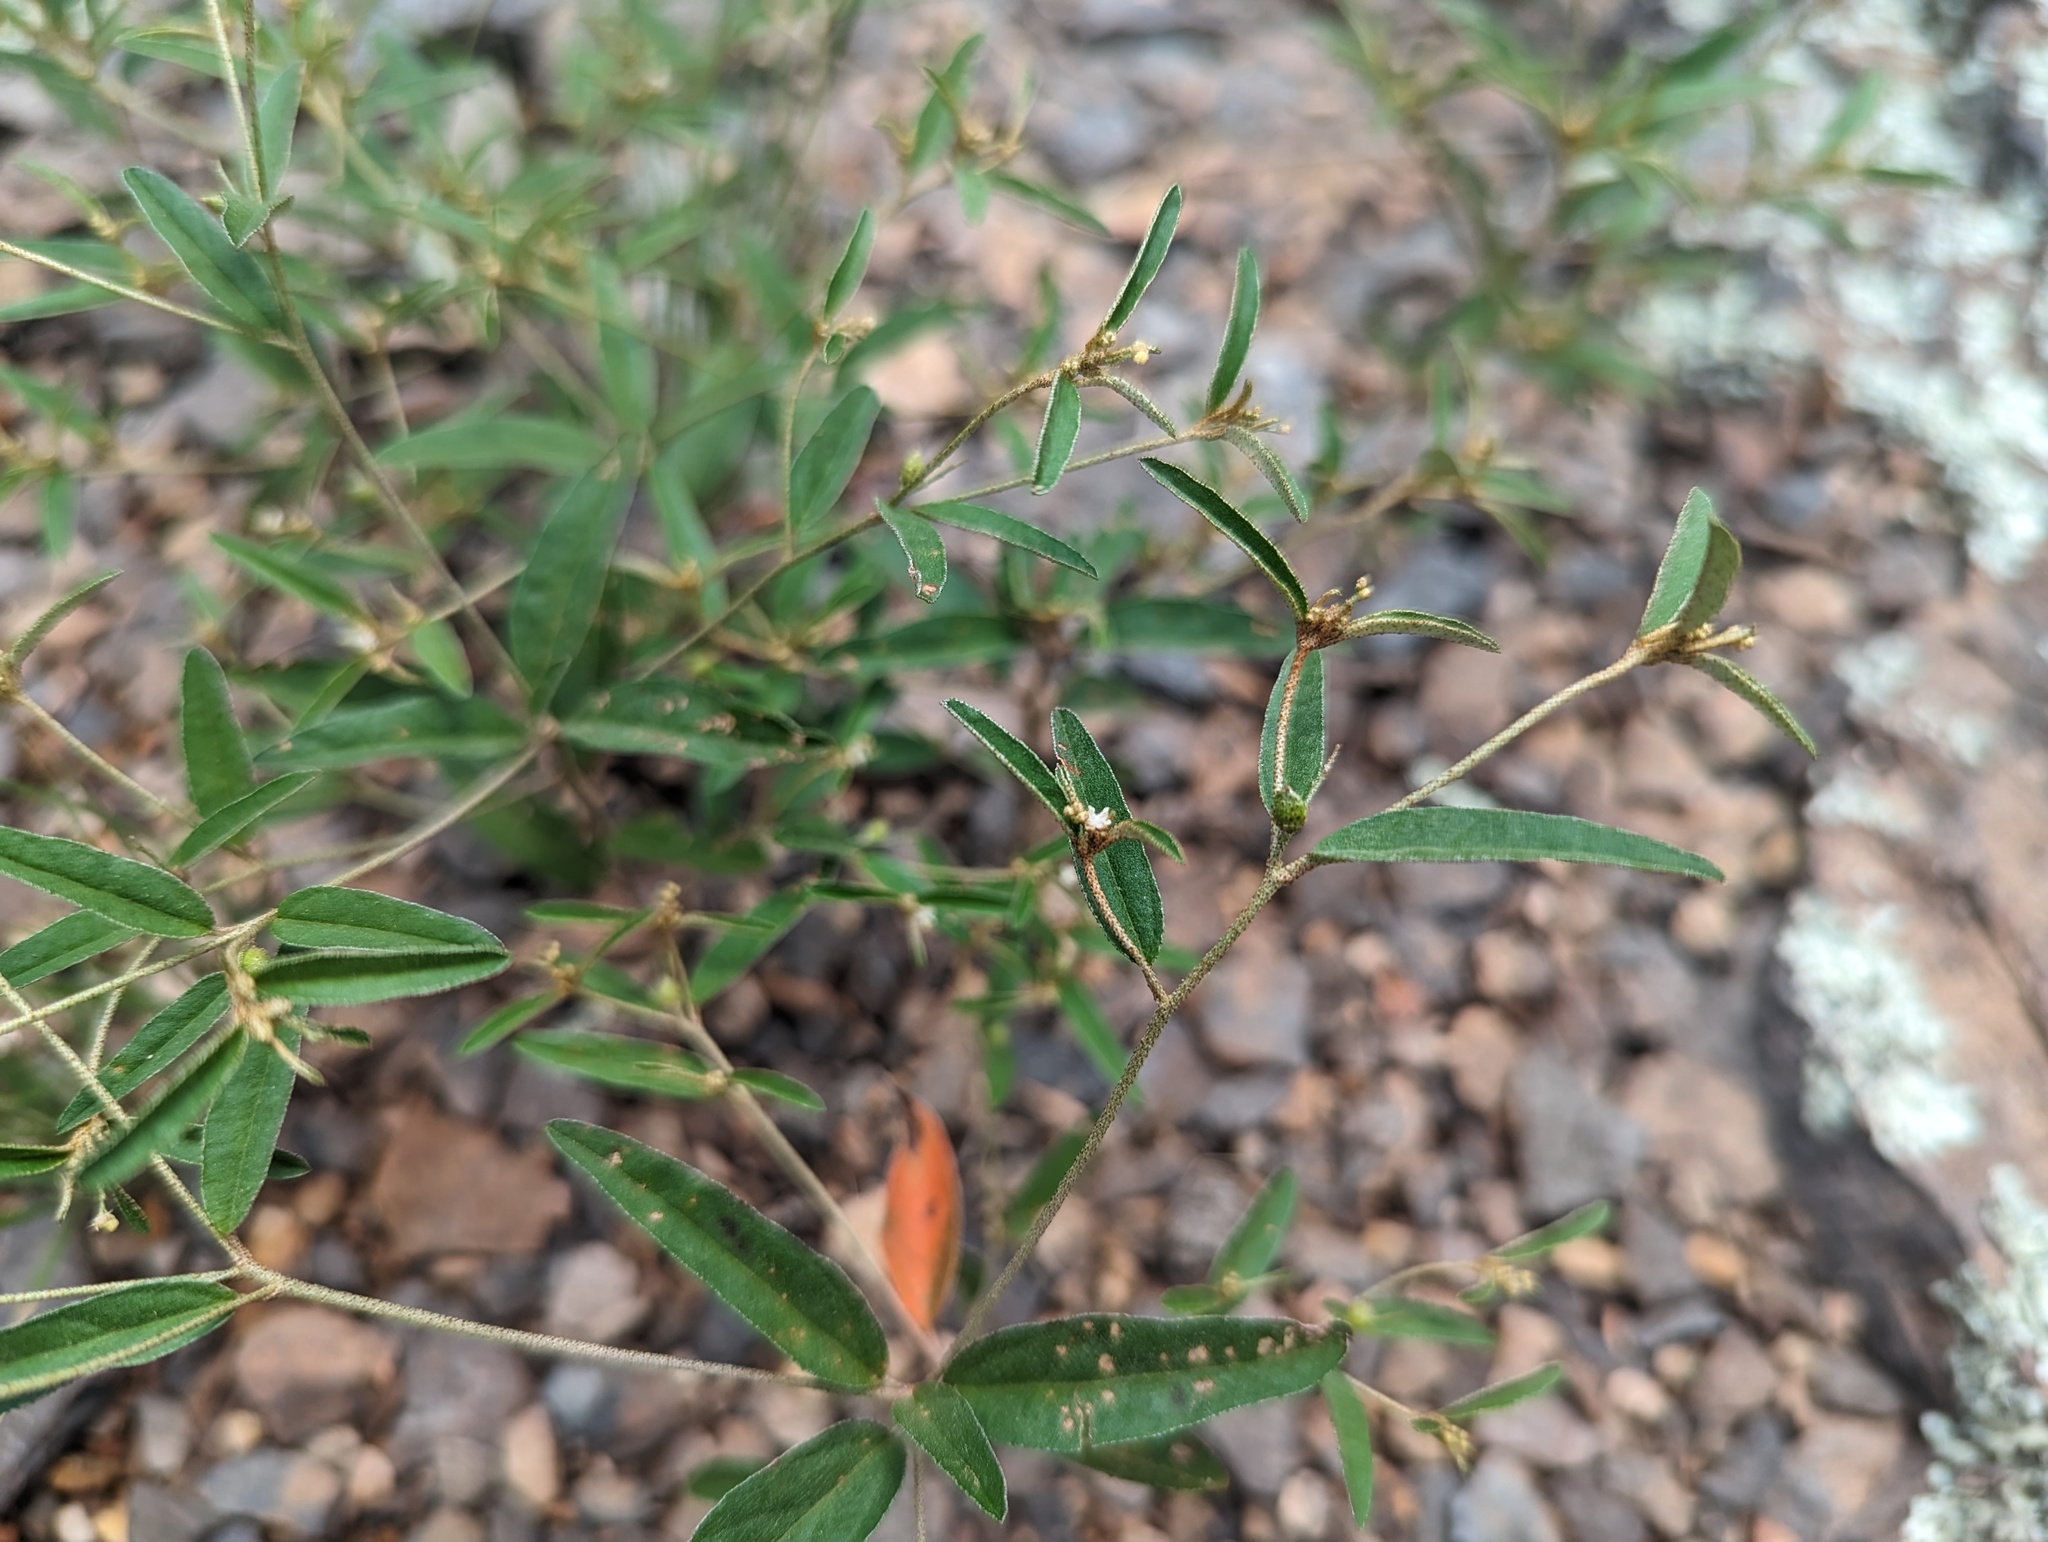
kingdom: Plantae
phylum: Tracheophyta
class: Magnoliopsida
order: Malpighiales
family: Euphorbiaceae
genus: Croton
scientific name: Croton michauxii
